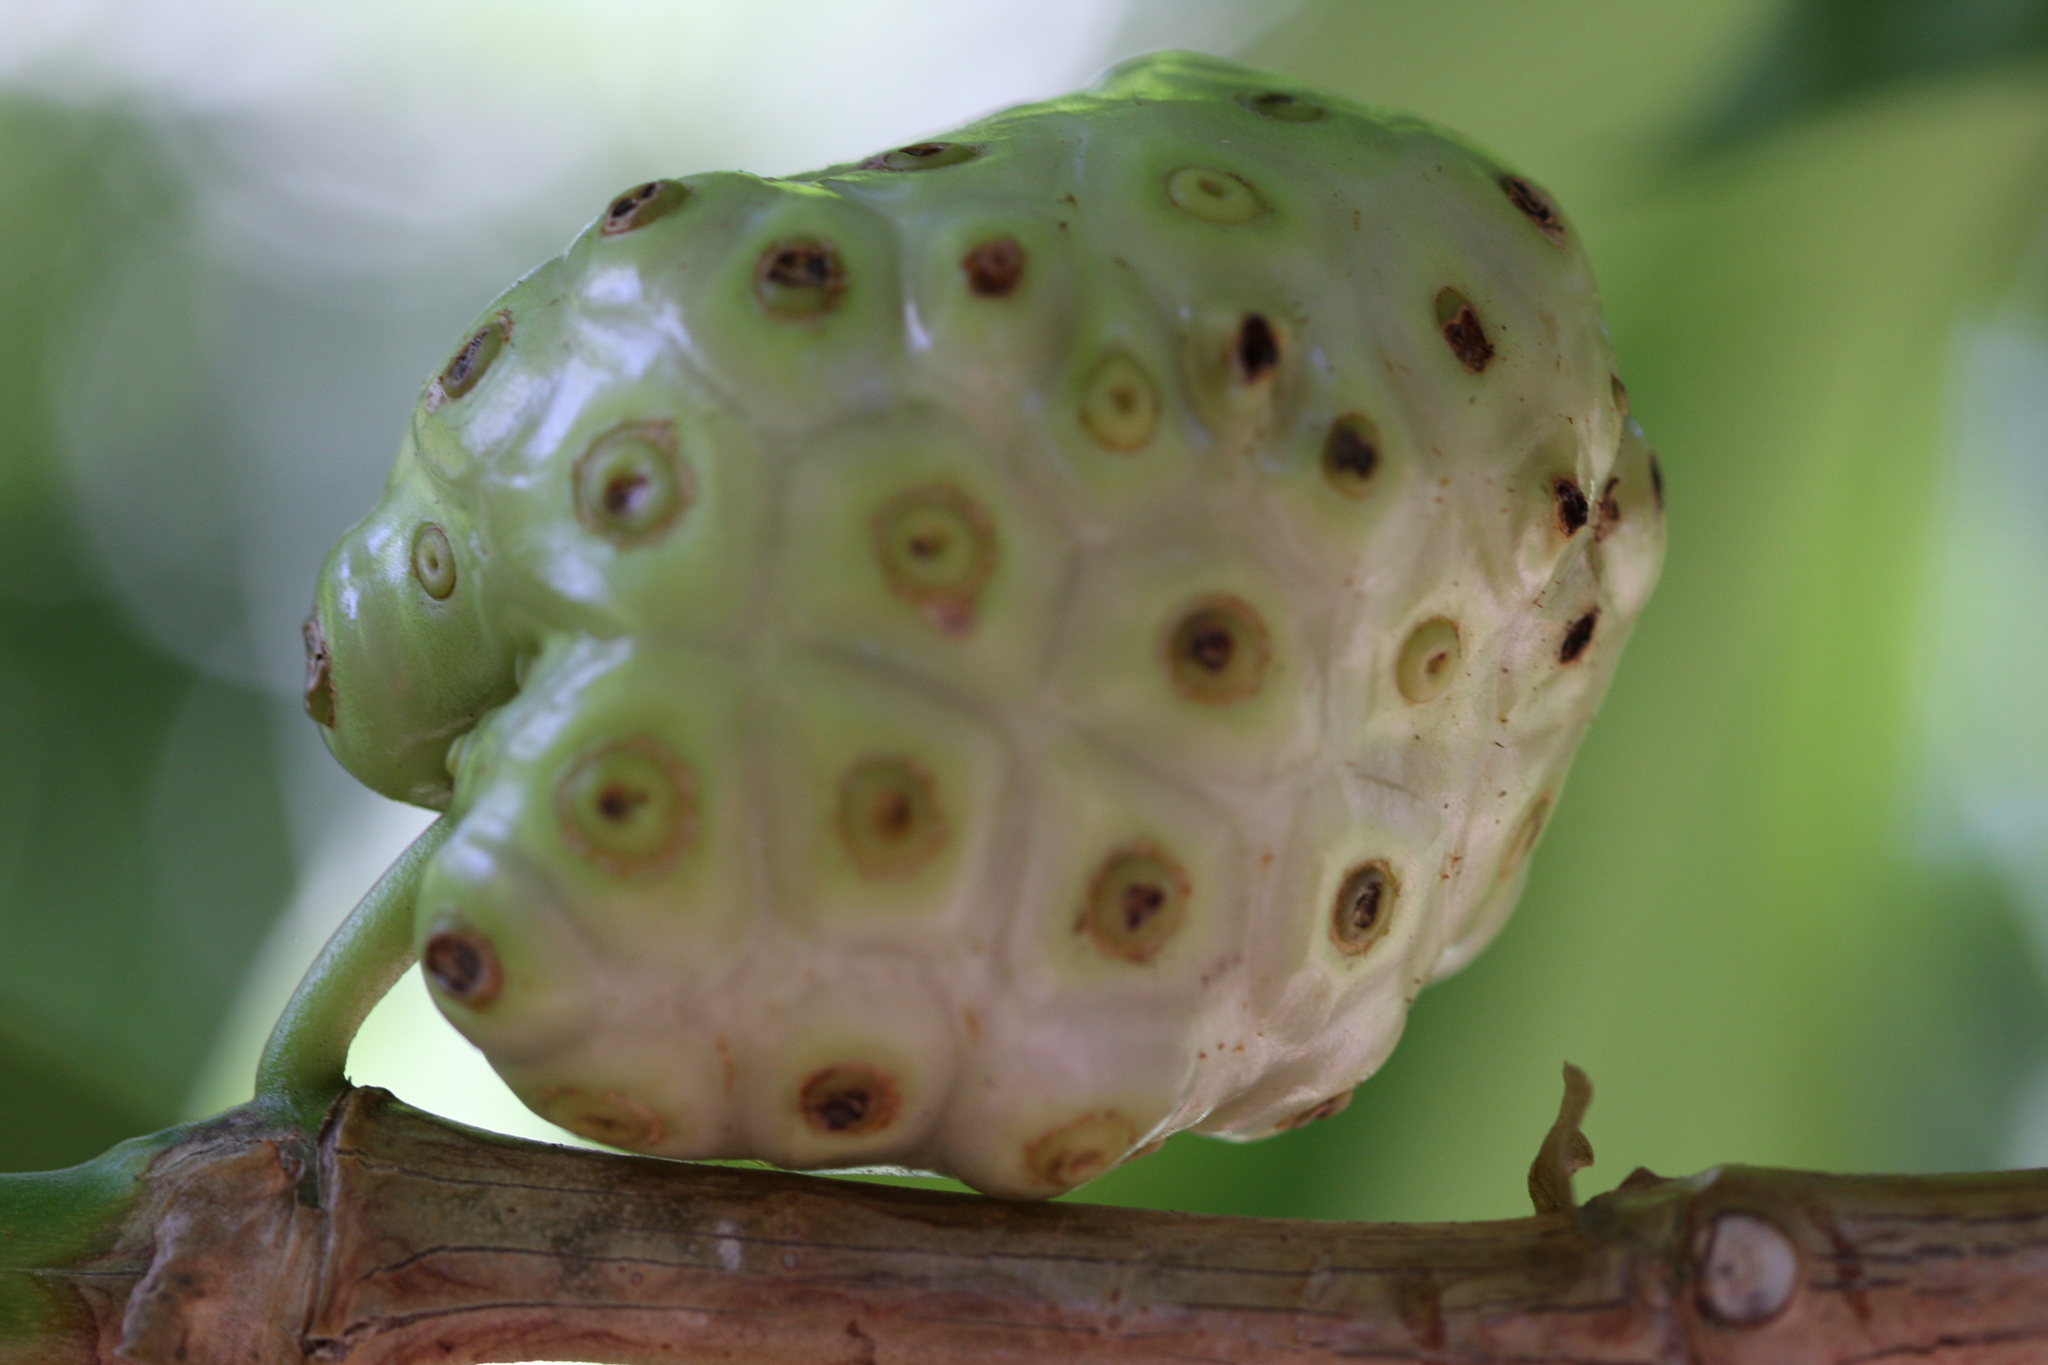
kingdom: Plantae
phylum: Tracheophyta
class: Magnoliopsida
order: Gentianales
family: Rubiaceae
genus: Morinda
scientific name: Morinda citrifolia
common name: Indian-mulberry
